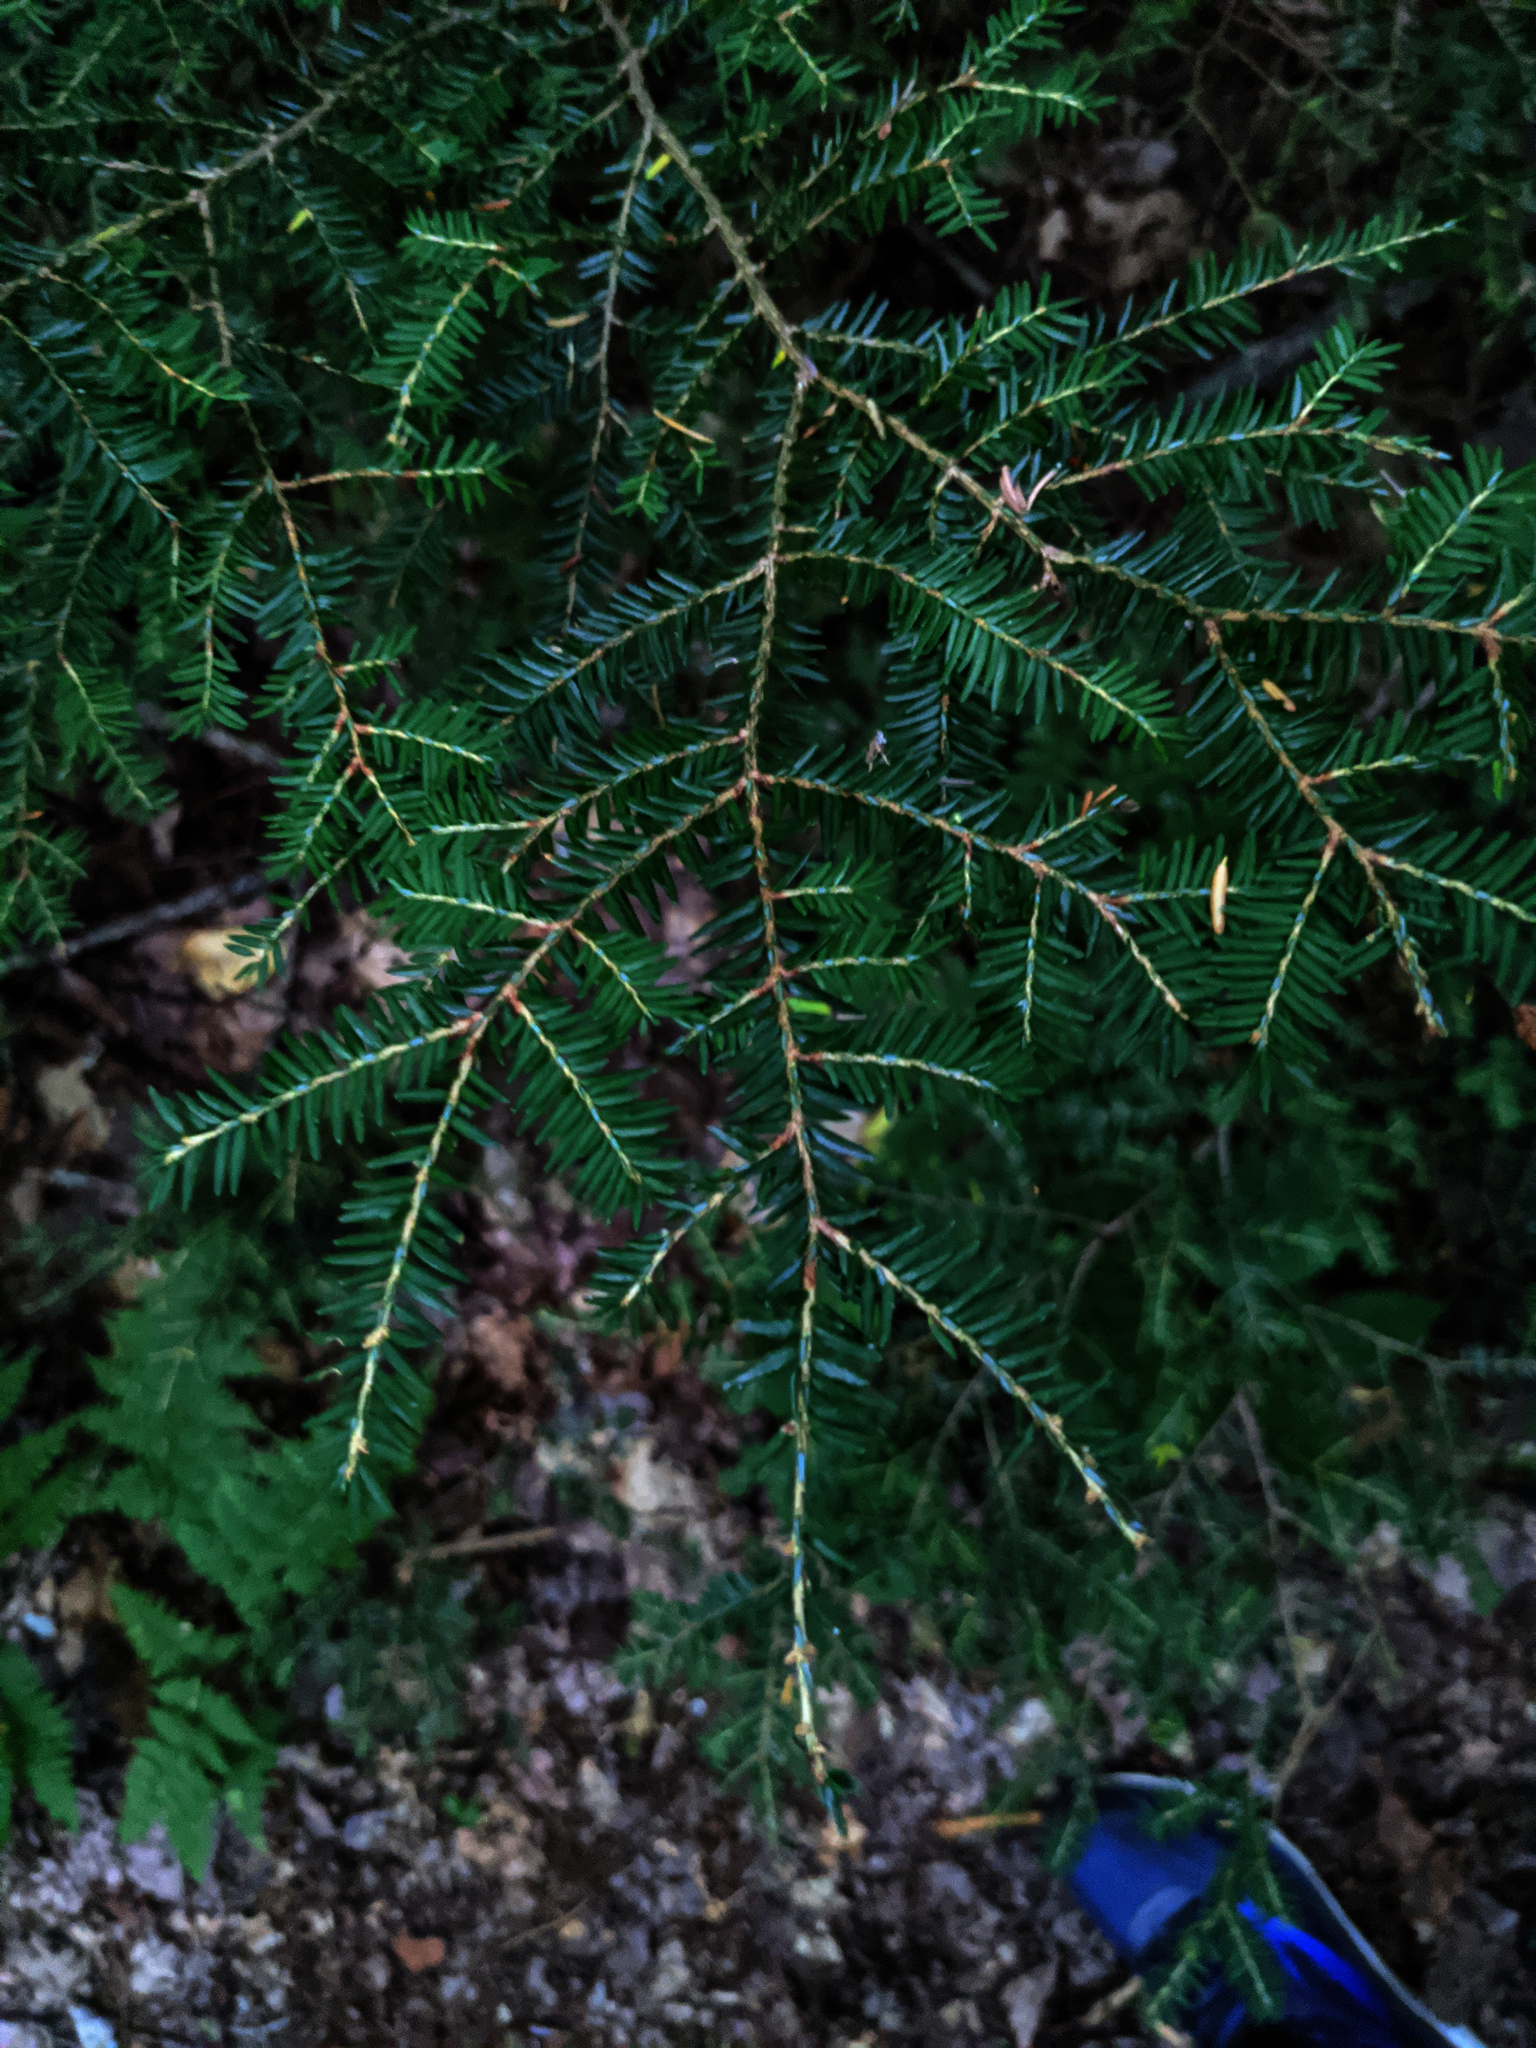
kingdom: Plantae
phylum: Tracheophyta
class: Pinopsida
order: Pinales
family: Pinaceae
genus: Tsuga
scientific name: Tsuga canadensis
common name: Eastern hemlock
